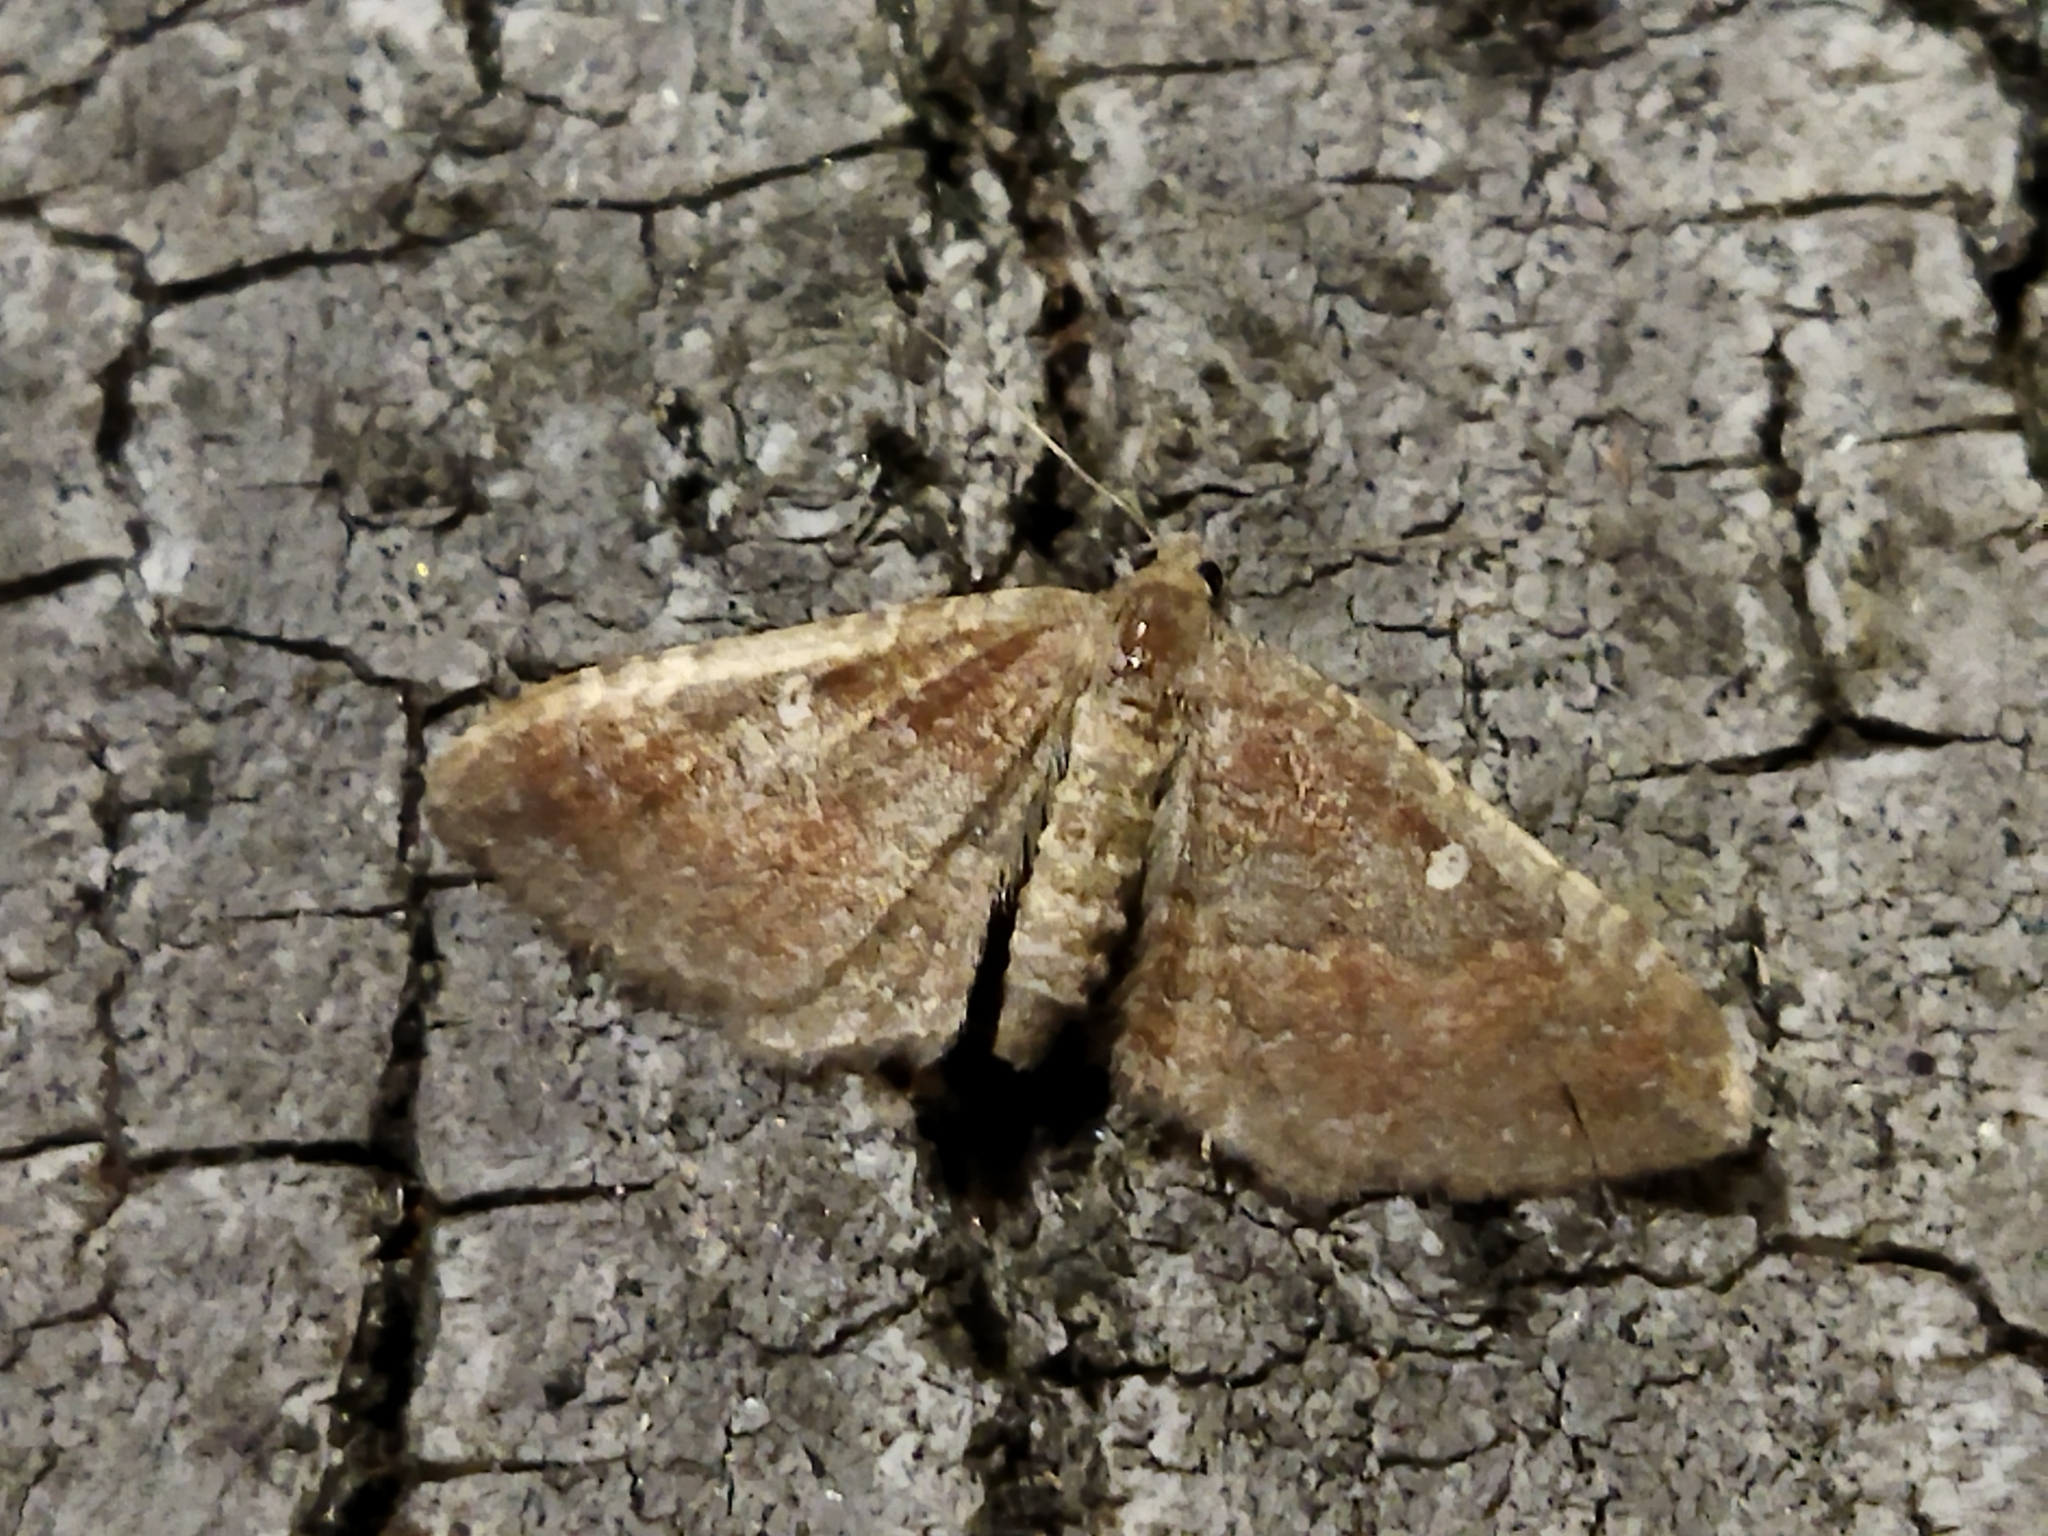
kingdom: Animalia
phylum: Arthropoda
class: Insecta
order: Lepidoptera
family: Geometridae
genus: Orthonama
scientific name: Orthonama obstipata
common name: The gem
